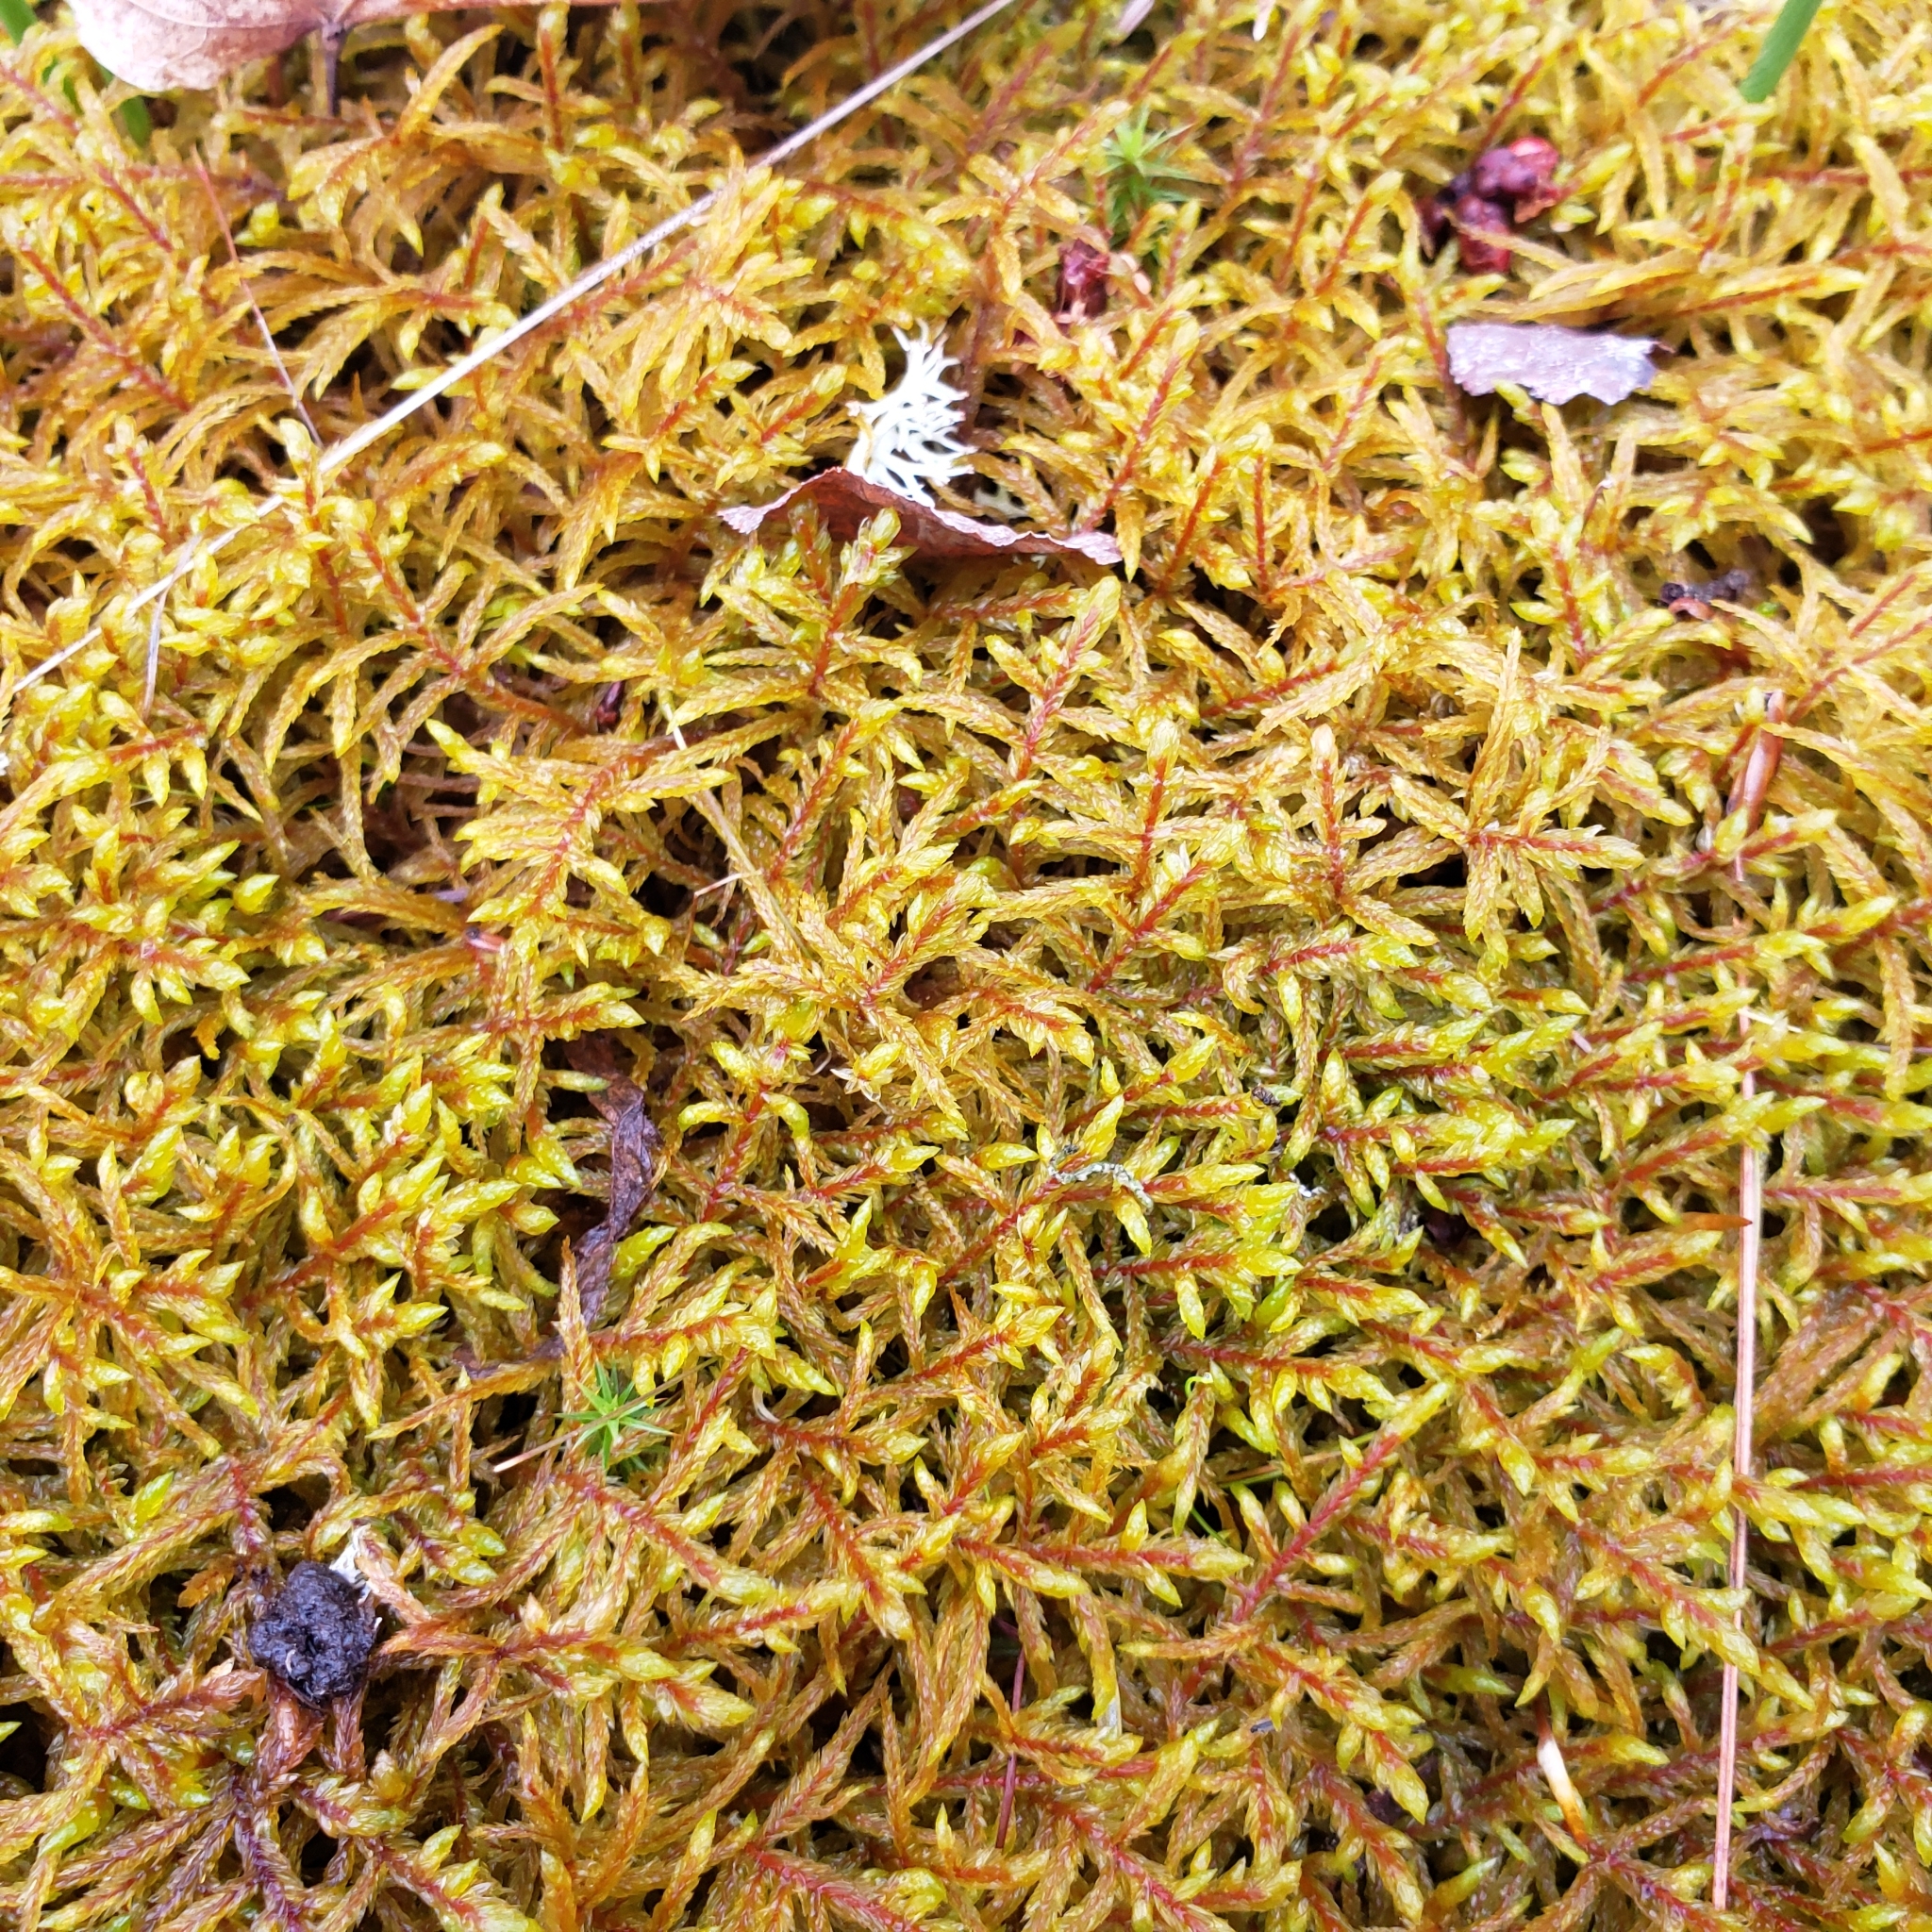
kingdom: Plantae
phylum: Bryophyta
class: Bryopsida
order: Hypnales
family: Hylocomiaceae
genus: Pleurozium
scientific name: Pleurozium schreberi
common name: Red-stemmed feather moss
